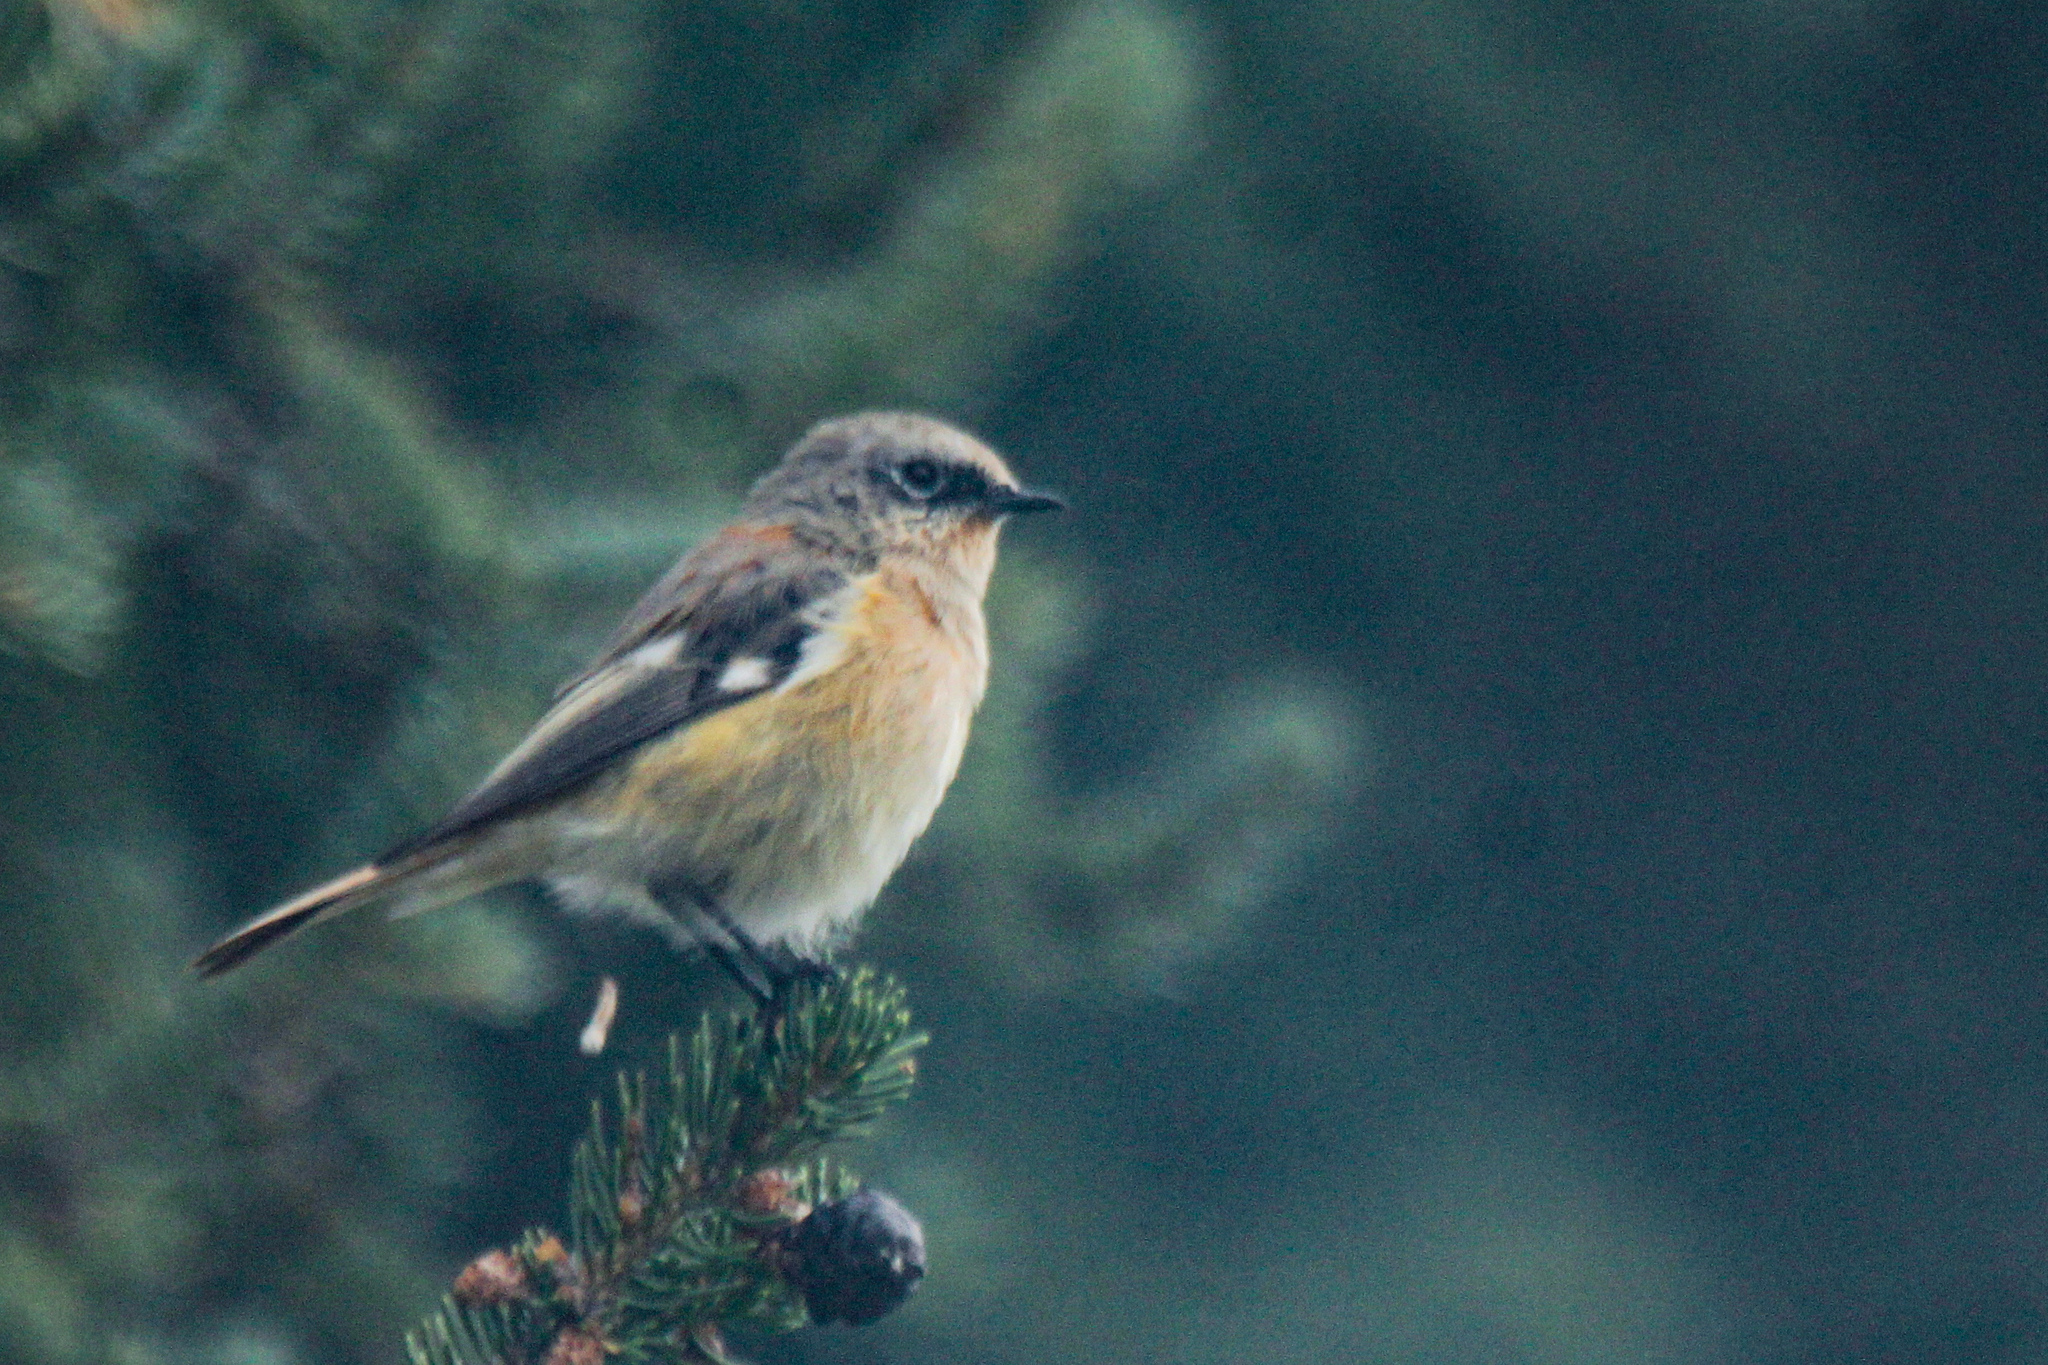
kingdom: Animalia
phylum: Chordata
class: Aves
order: Passeriformes
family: Muscicapidae
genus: Phoenicurus
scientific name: Phoenicurus erythronotus
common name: Eversmann's redstart
